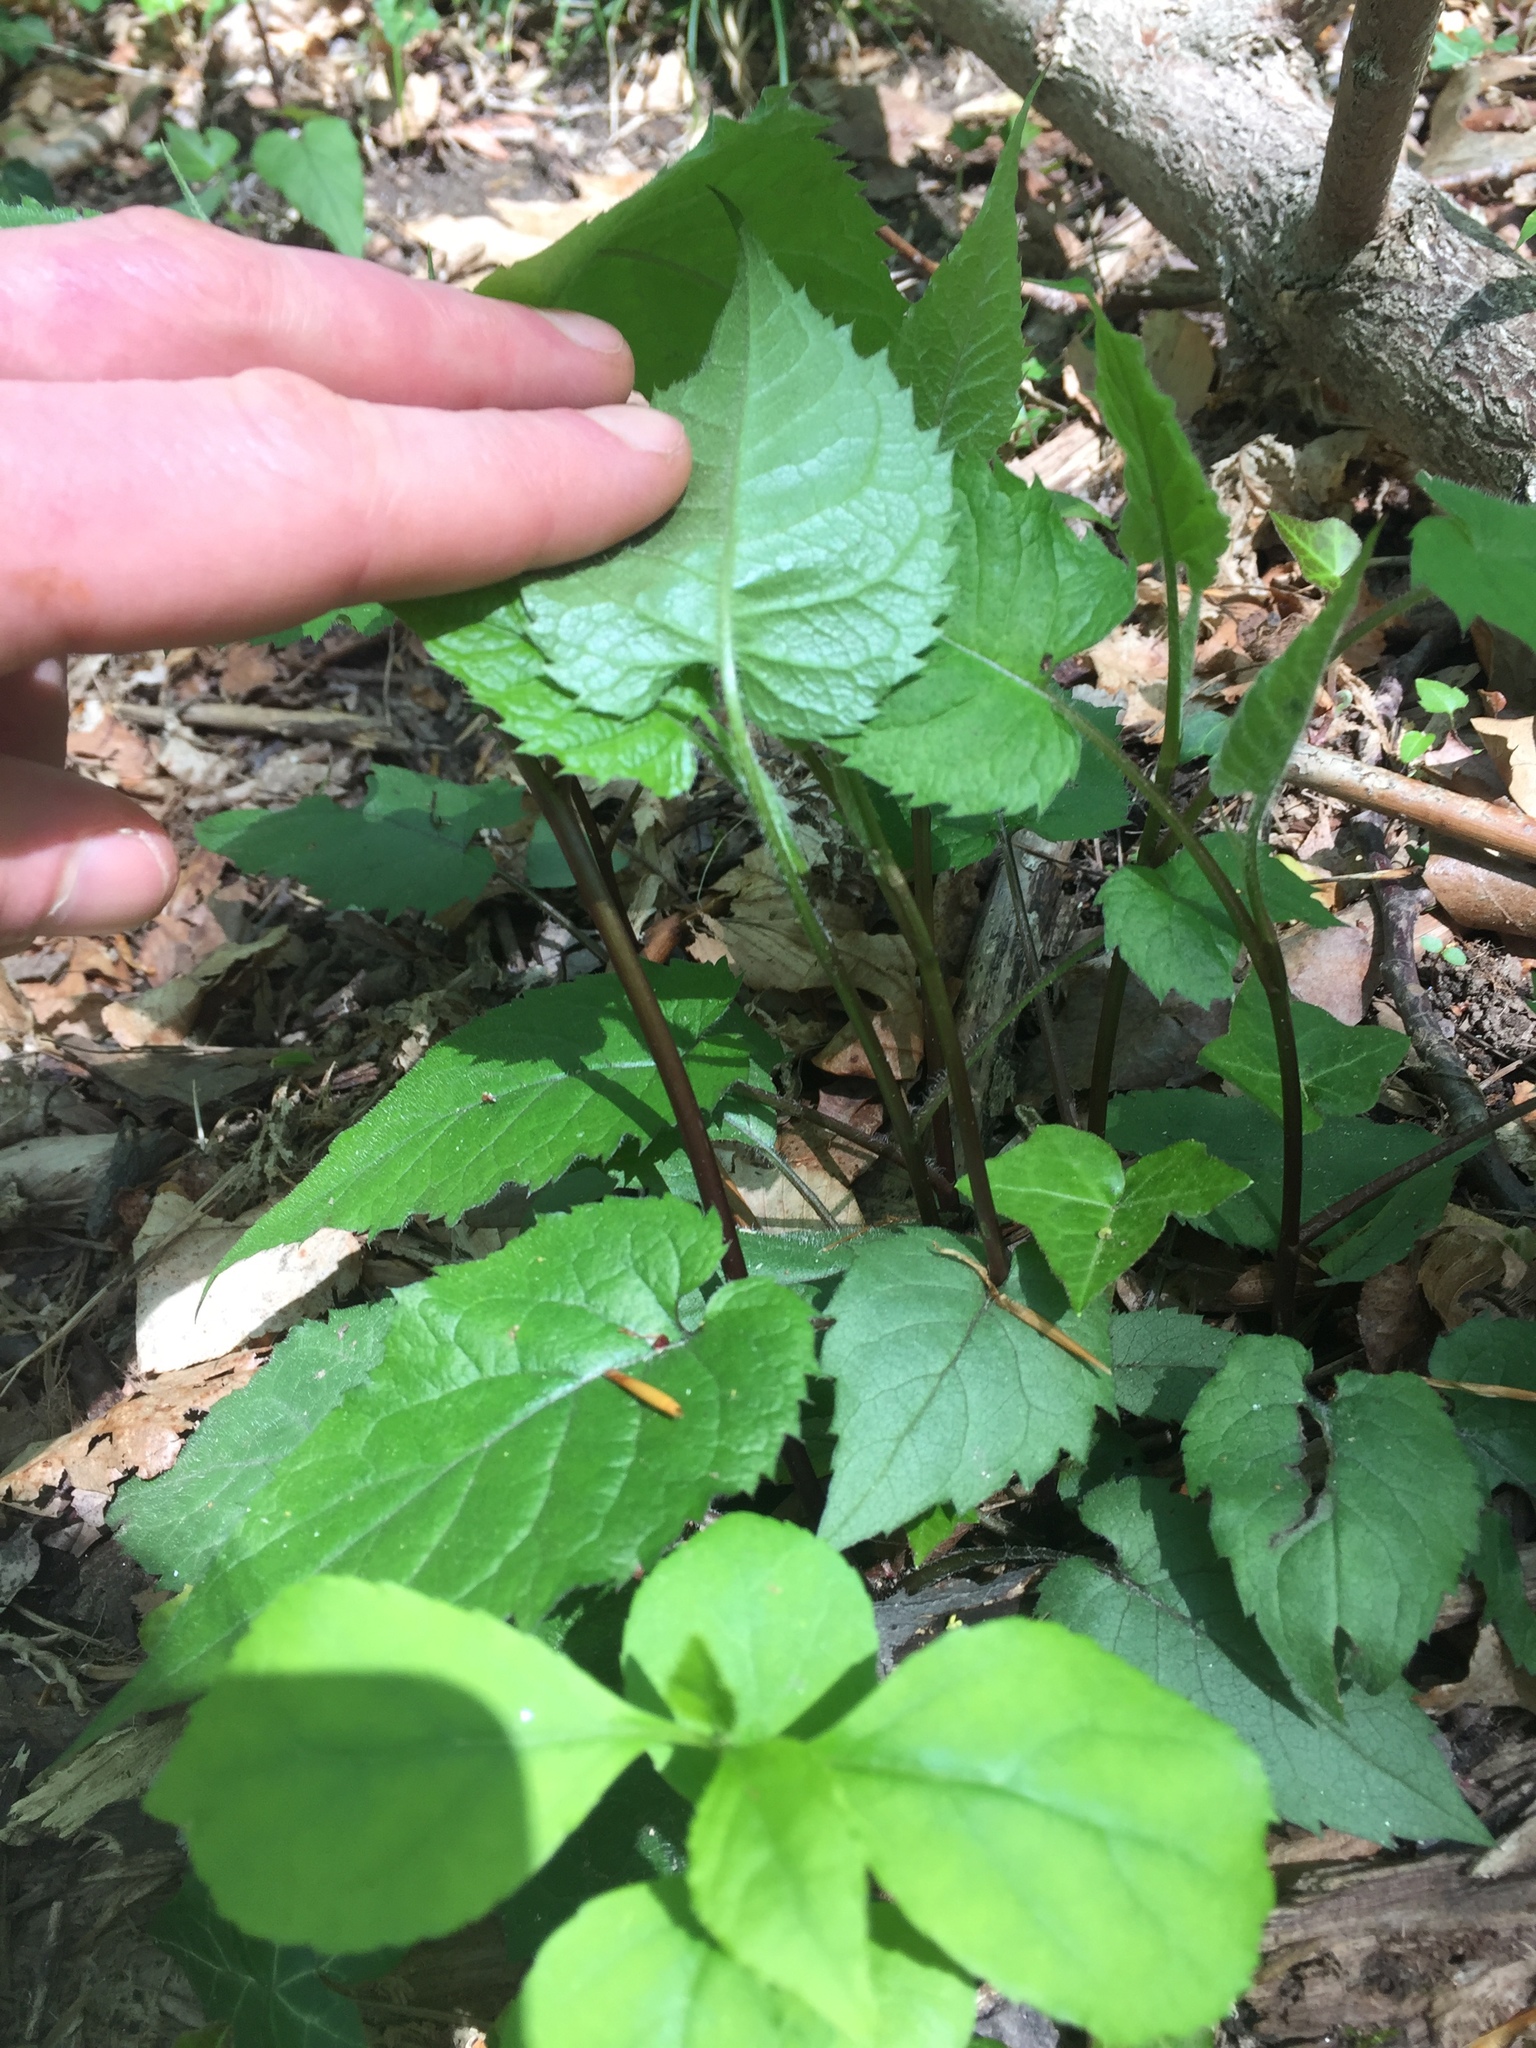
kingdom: Plantae
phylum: Tracheophyta
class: Magnoliopsida
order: Asterales
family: Asteraceae
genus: Eurybia
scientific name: Eurybia divaricata
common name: White wood aster
